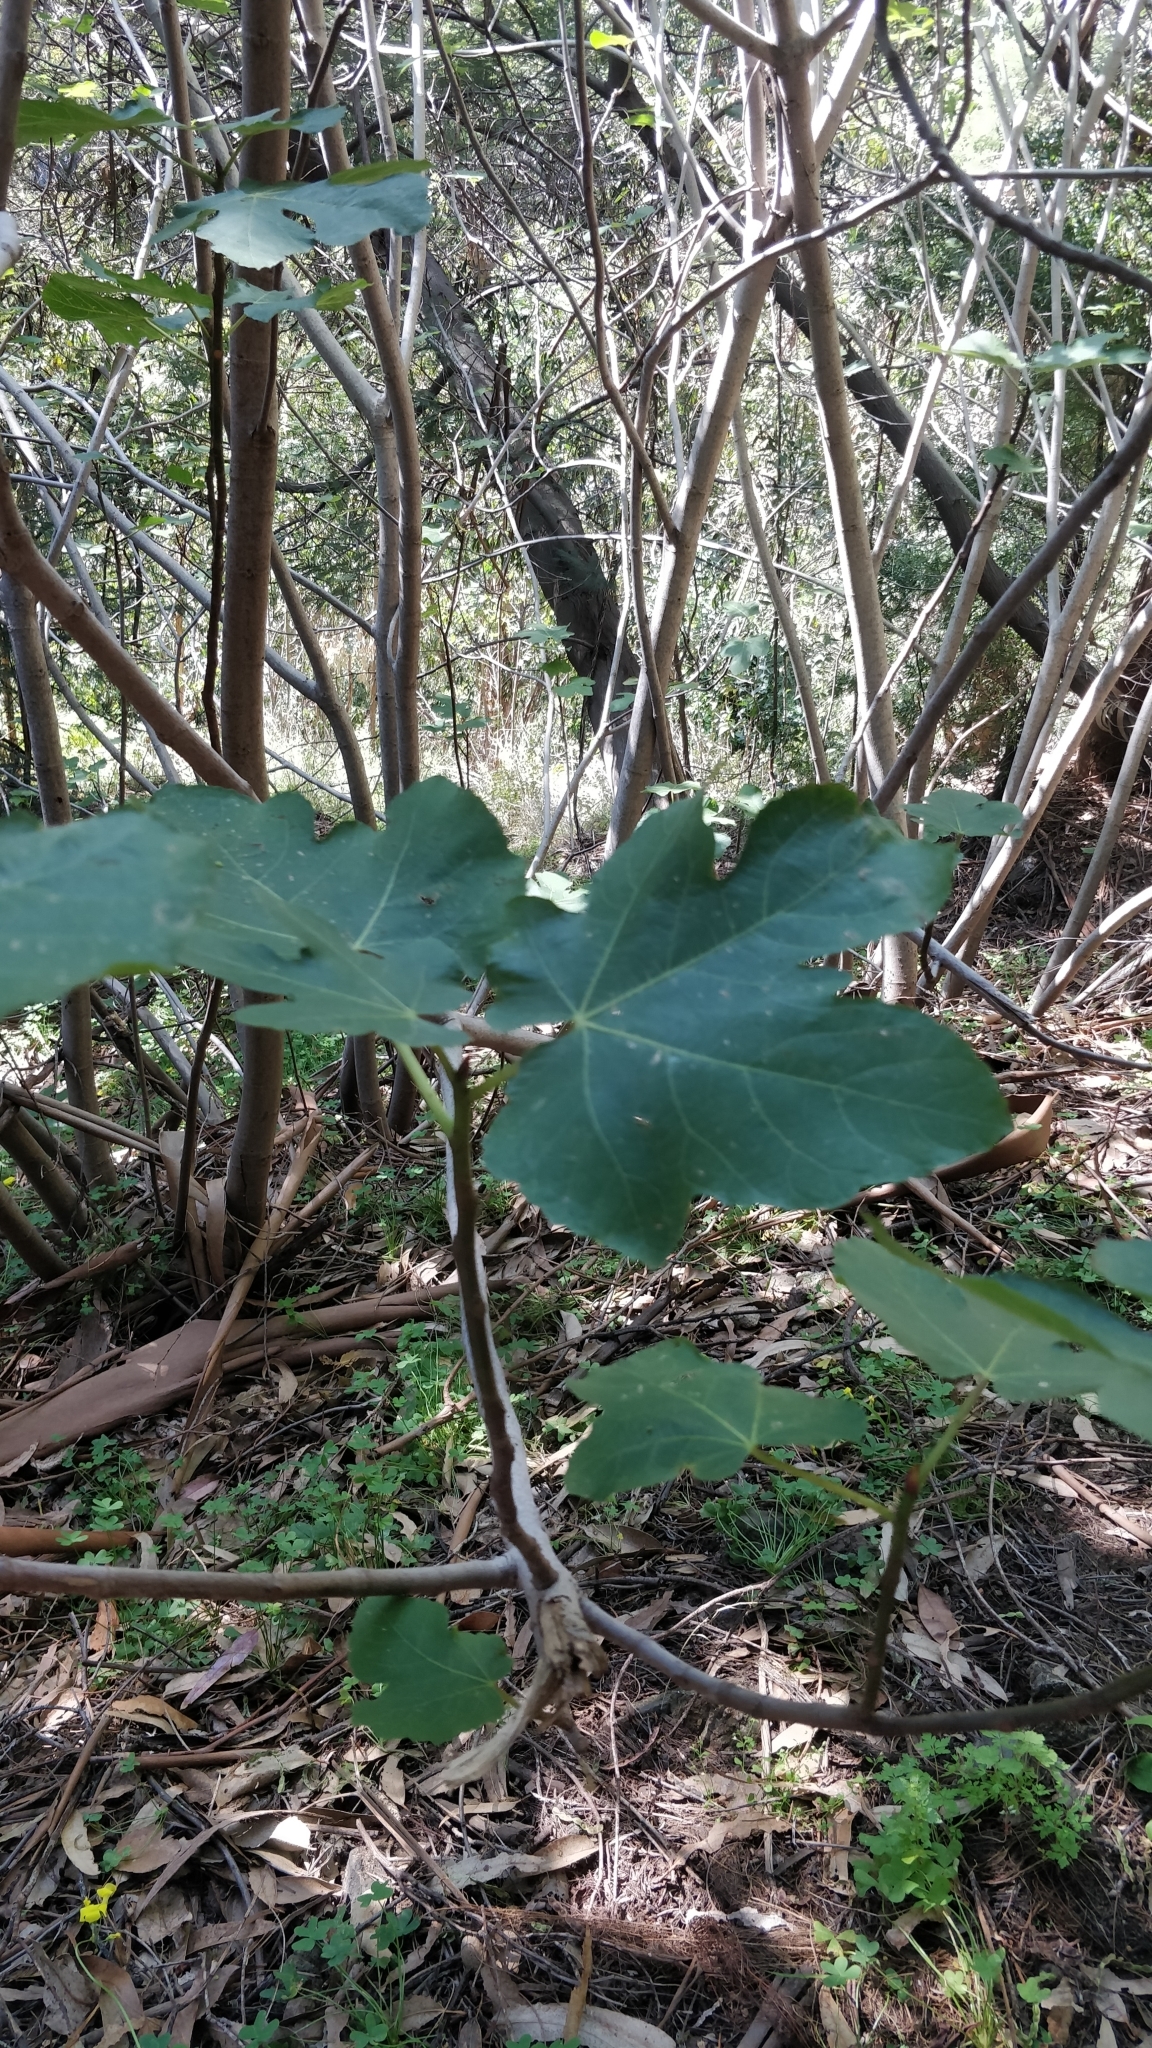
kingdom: Plantae
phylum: Tracheophyta
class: Magnoliopsida
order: Rosales
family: Moraceae
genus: Ficus
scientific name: Ficus carica
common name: Fig
